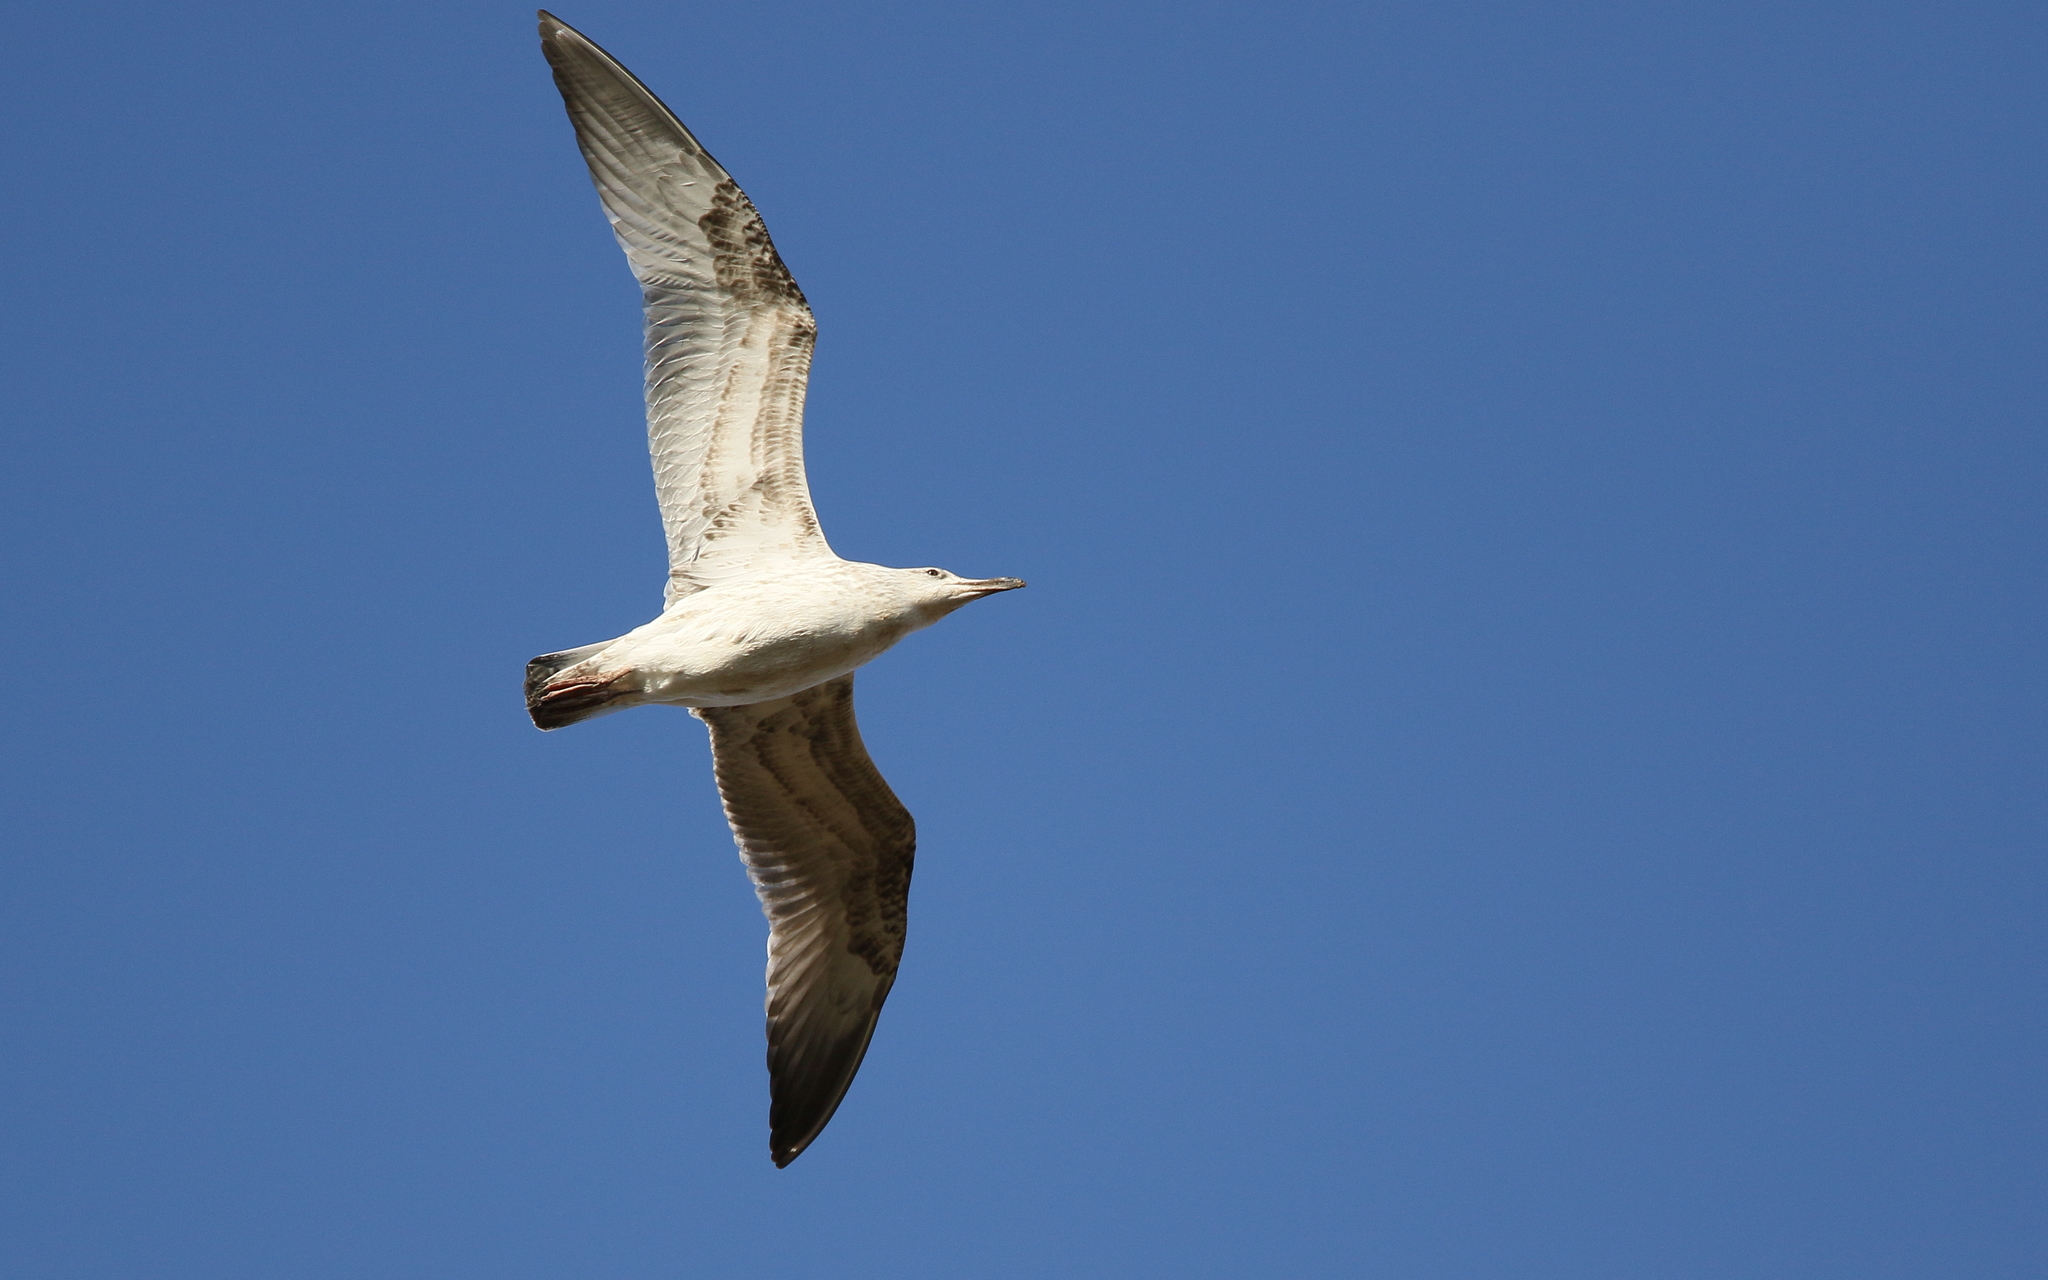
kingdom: Animalia
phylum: Chordata
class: Aves
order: Charadriiformes
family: Laridae
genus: Larus
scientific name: Larus cachinnans
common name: Caspian gull
